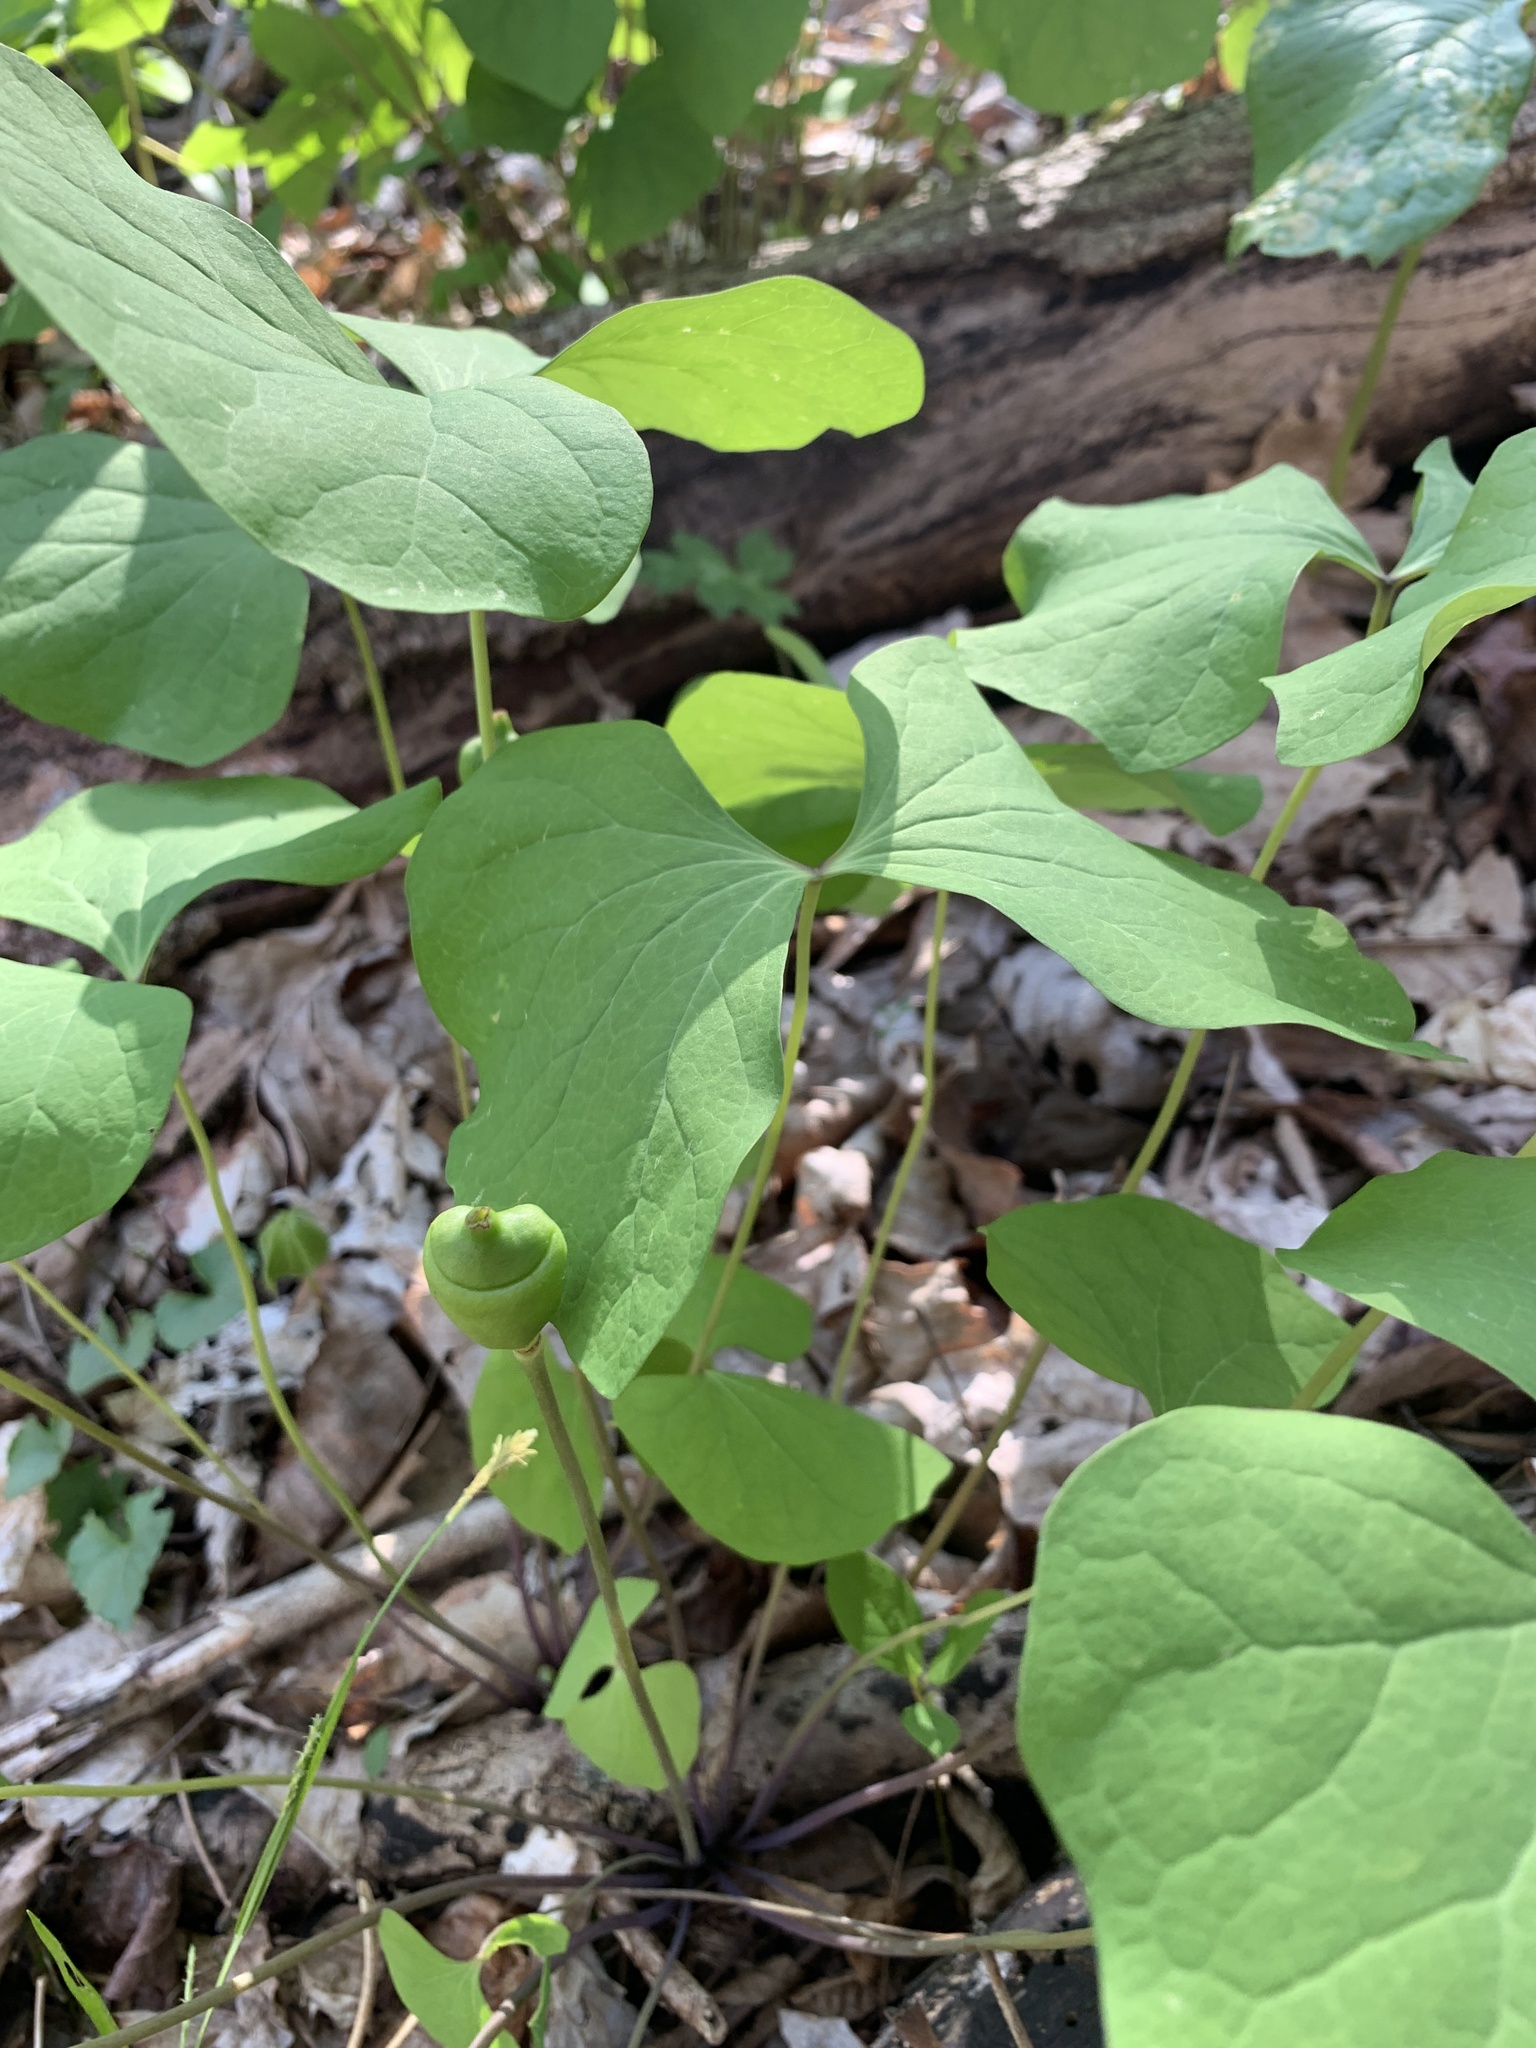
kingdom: Plantae
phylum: Tracheophyta
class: Magnoliopsida
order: Ranunculales
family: Berberidaceae
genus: Jeffersonia
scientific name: Jeffersonia diphylla
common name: Rheumatism-root
